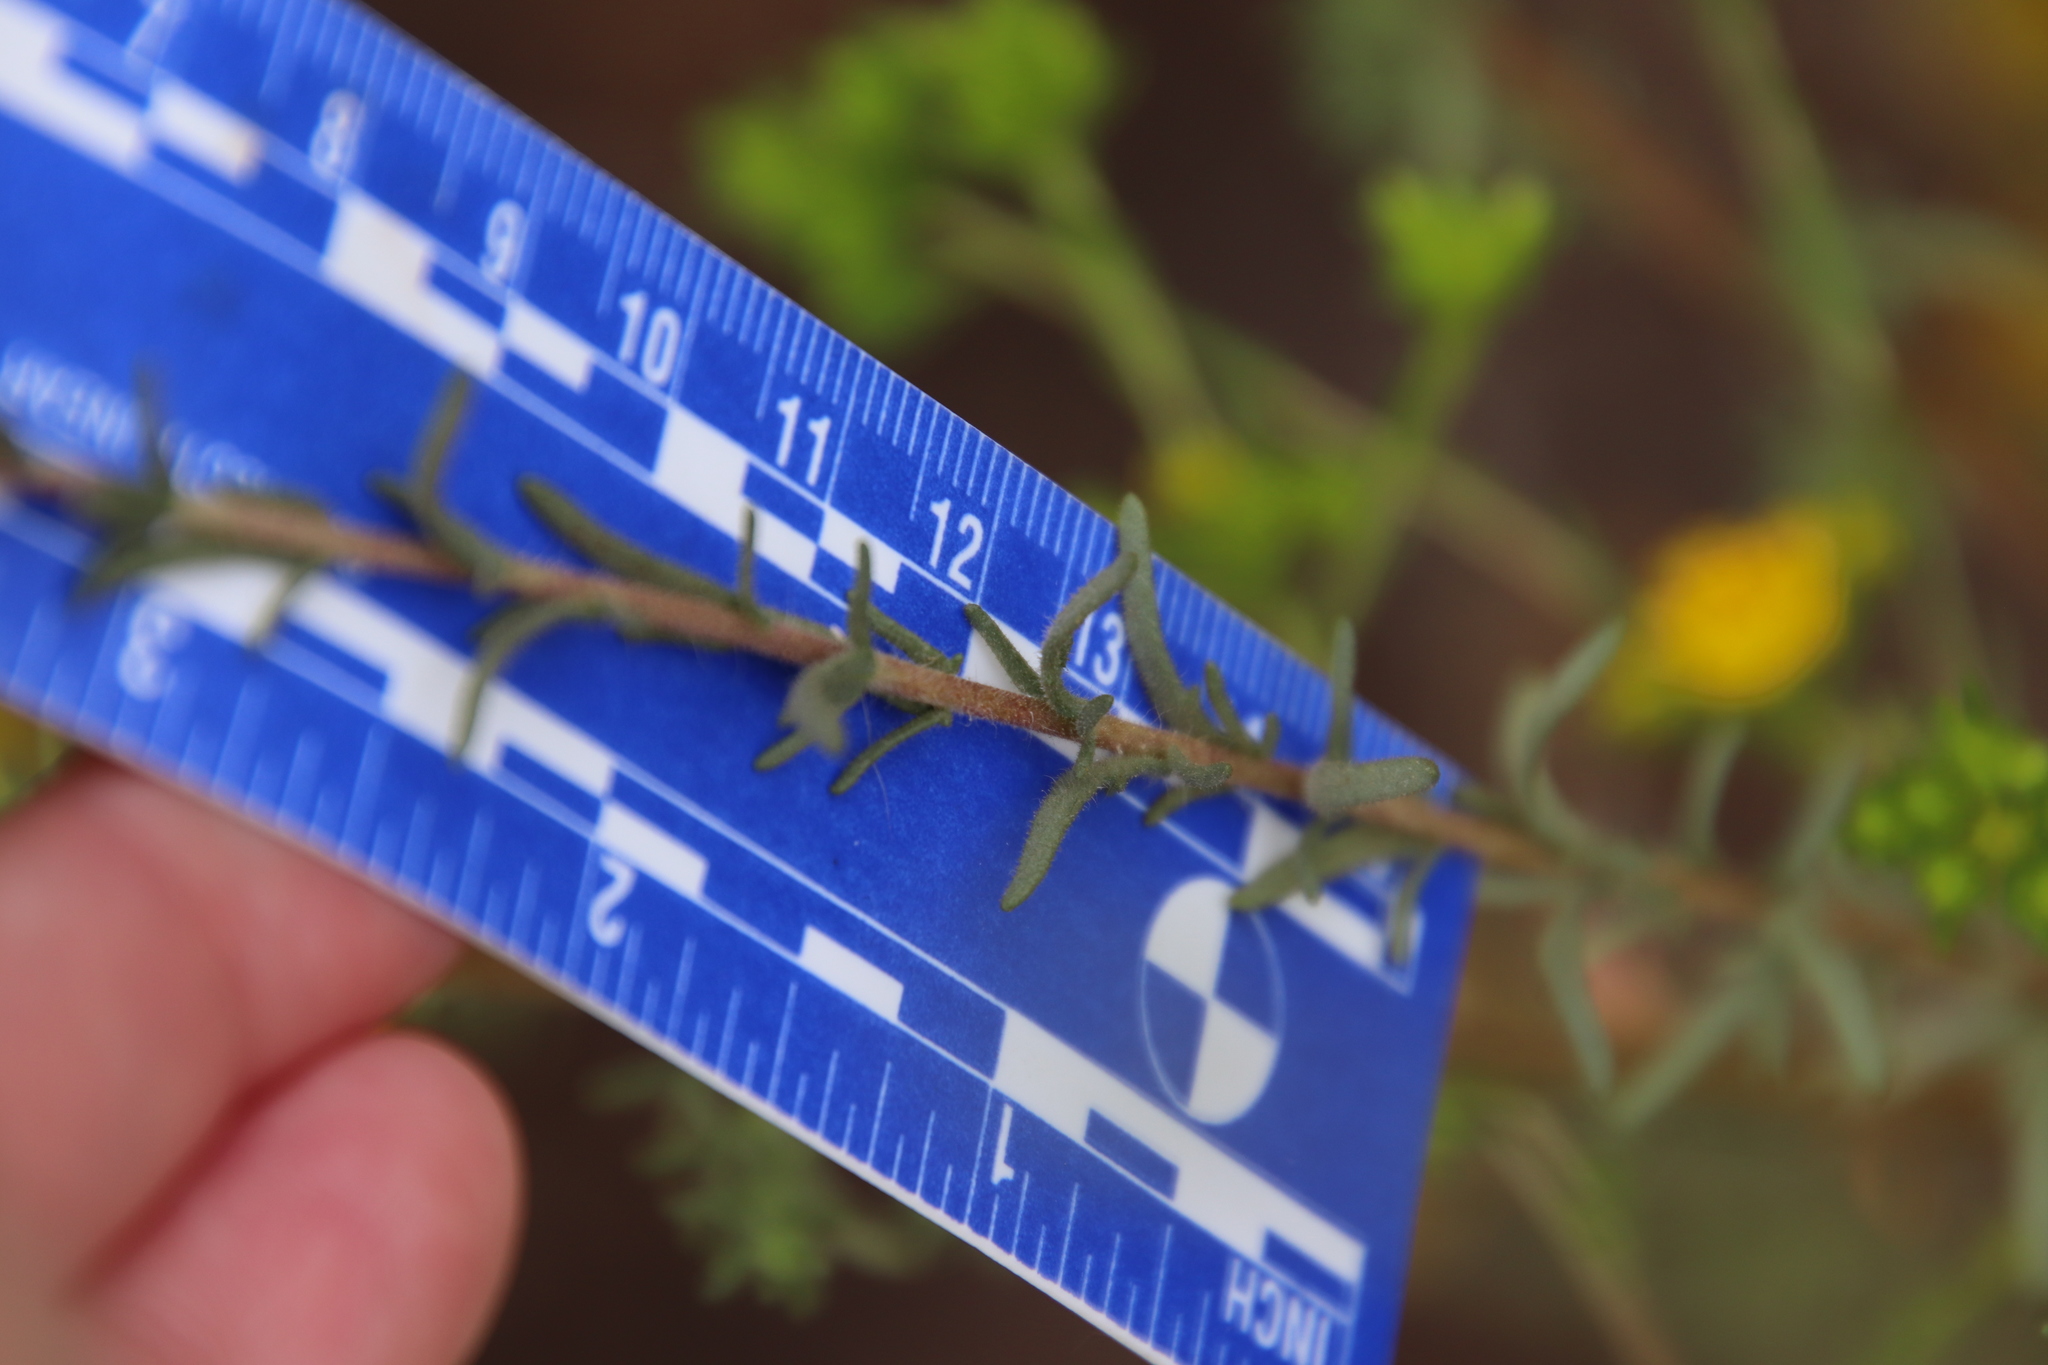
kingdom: Plantae
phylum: Tracheophyta
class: Magnoliopsida
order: Asterales
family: Asteraceae
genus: Deinandra
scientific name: Deinandra paniculata
